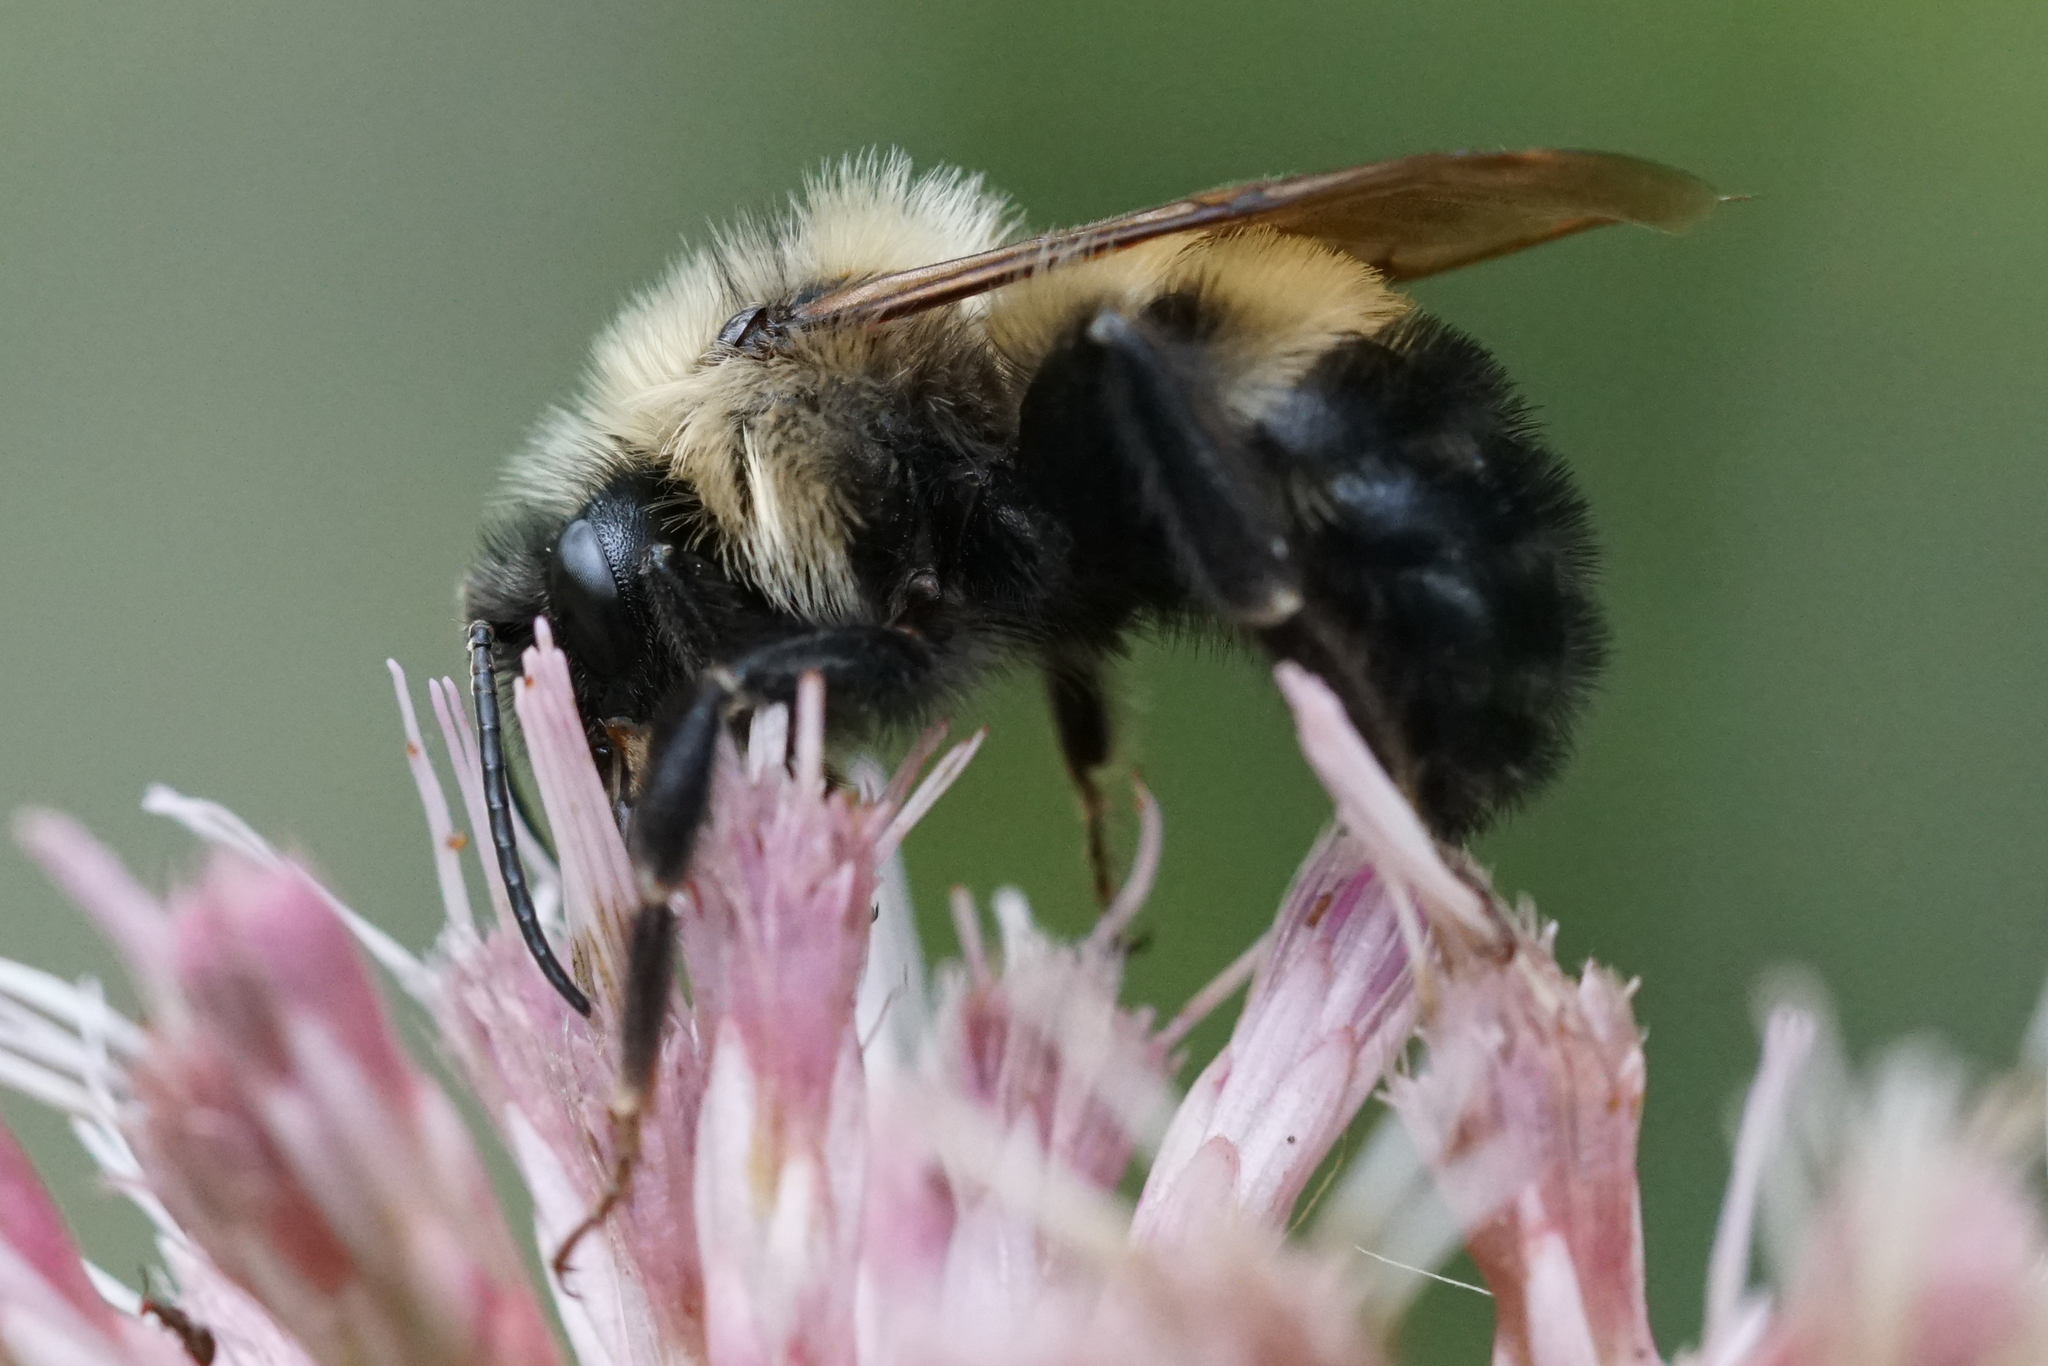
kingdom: Animalia
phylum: Arthropoda
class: Insecta
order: Hymenoptera
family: Apidae
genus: Bombus
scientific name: Bombus citrinus
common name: Lemon cuckoo bumble bee
